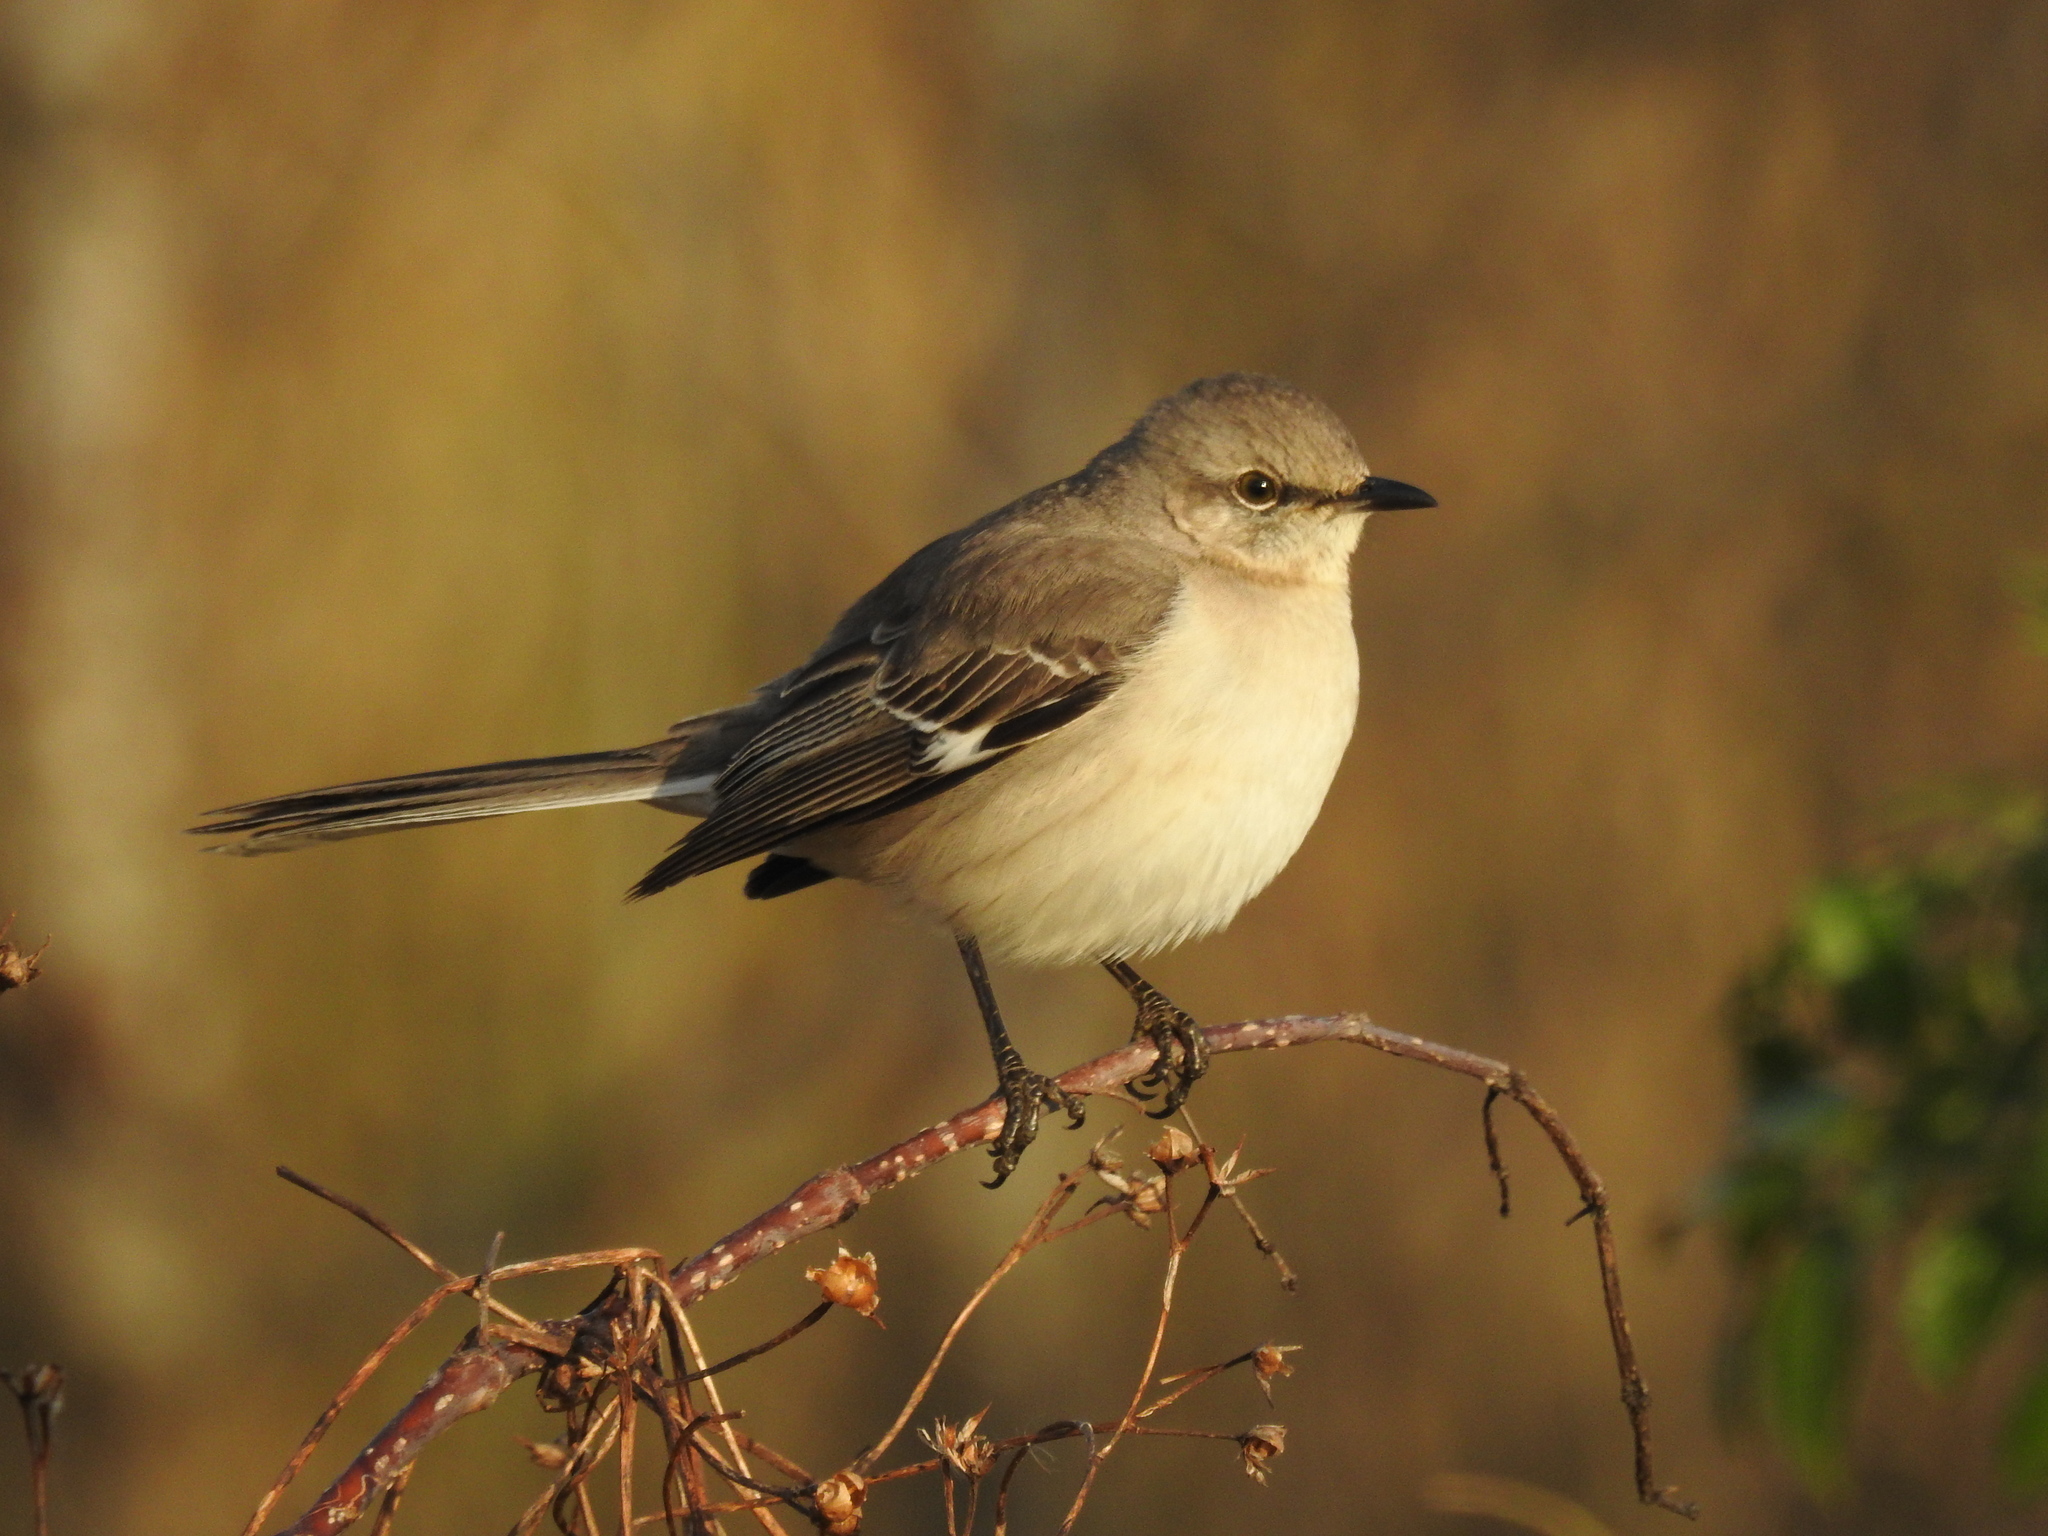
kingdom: Animalia
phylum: Chordata
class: Aves
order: Passeriformes
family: Mimidae
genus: Mimus
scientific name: Mimus polyglottos
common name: Northern mockingbird
